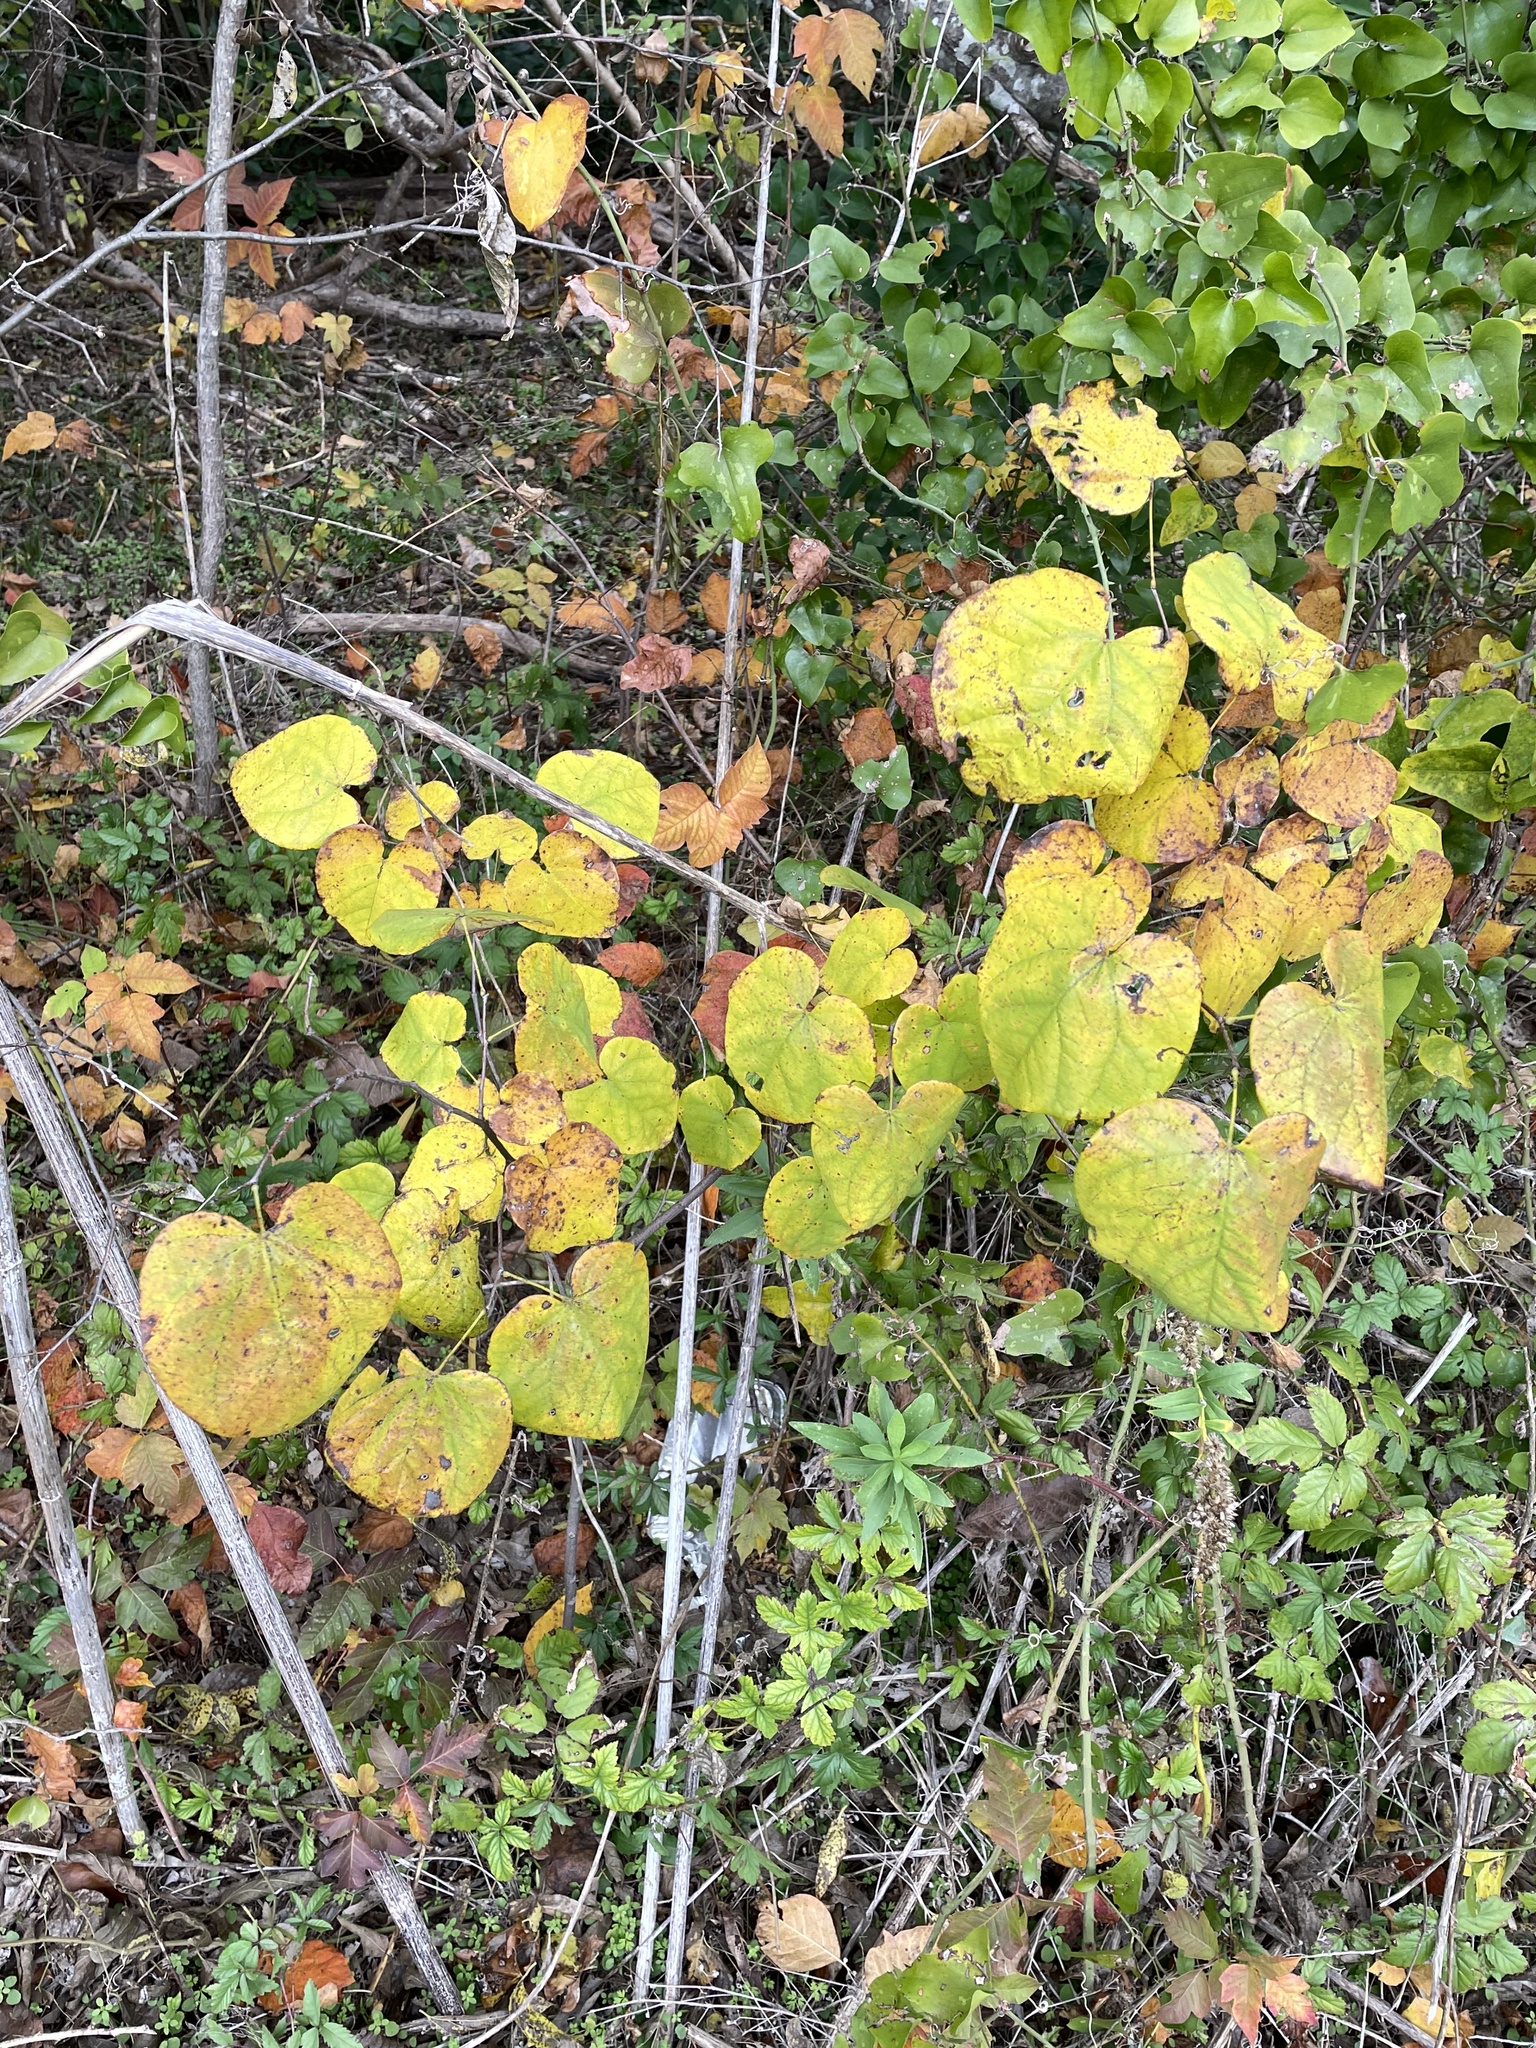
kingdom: Plantae
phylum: Tracheophyta
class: Magnoliopsida
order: Fabales
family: Fabaceae
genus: Cercis
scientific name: Cercis canadensis
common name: Eastern redbud
